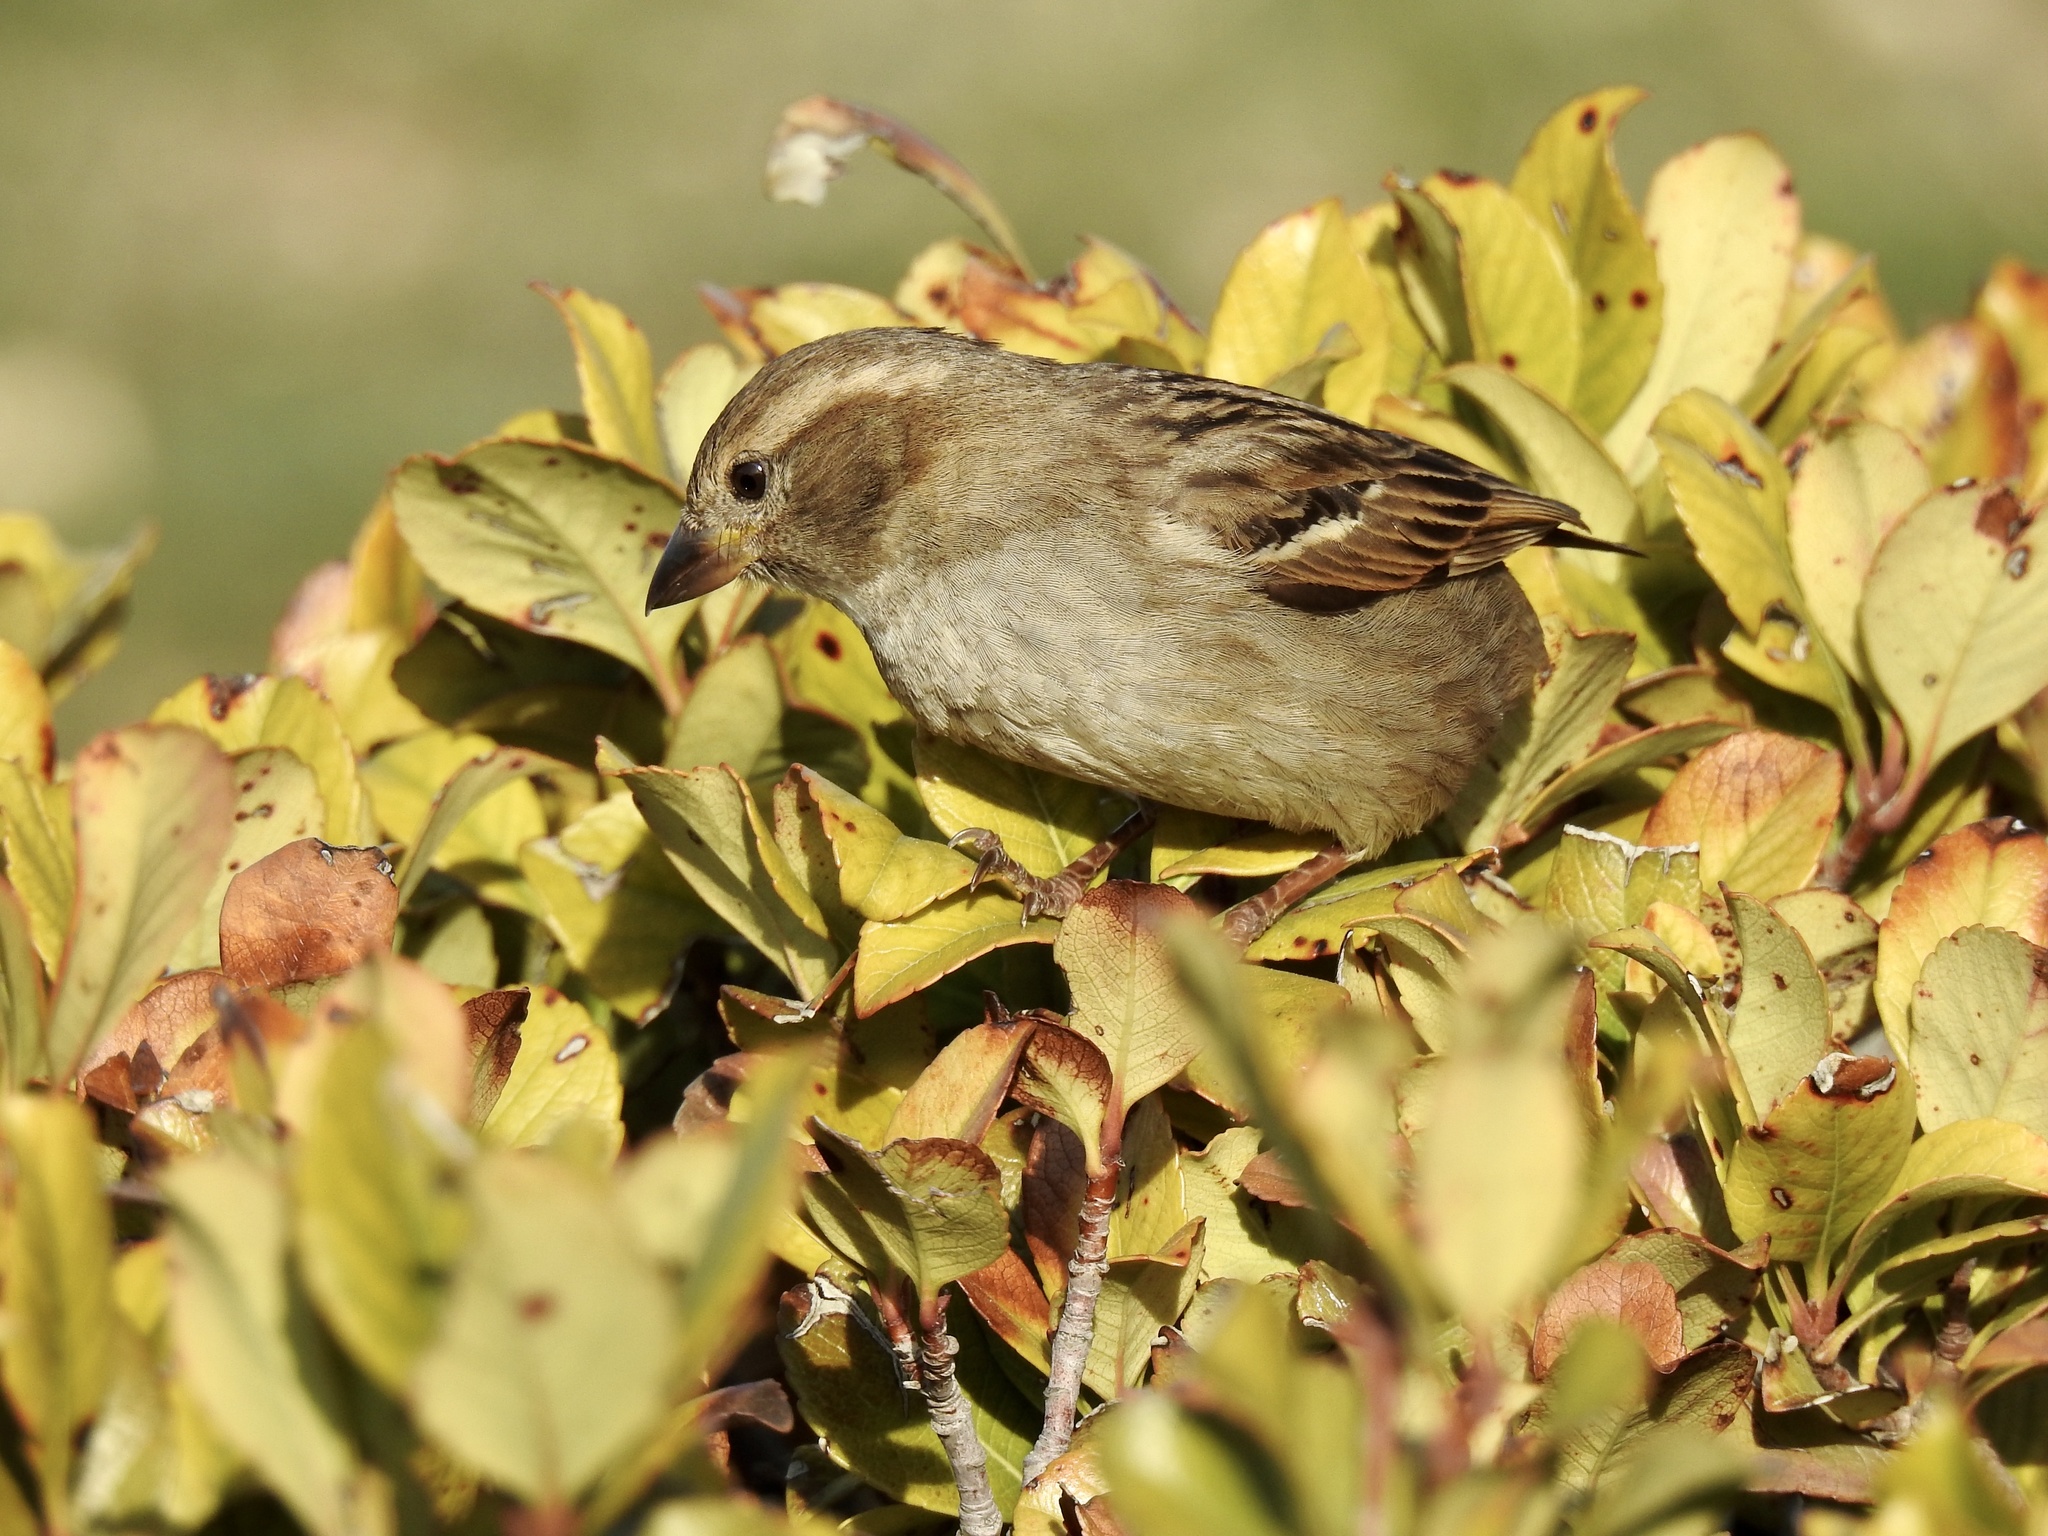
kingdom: Animalia
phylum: Chordata
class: Aves
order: Passeriformes
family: Passeridae
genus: Passer
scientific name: Passer domesticus
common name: House sparrow
